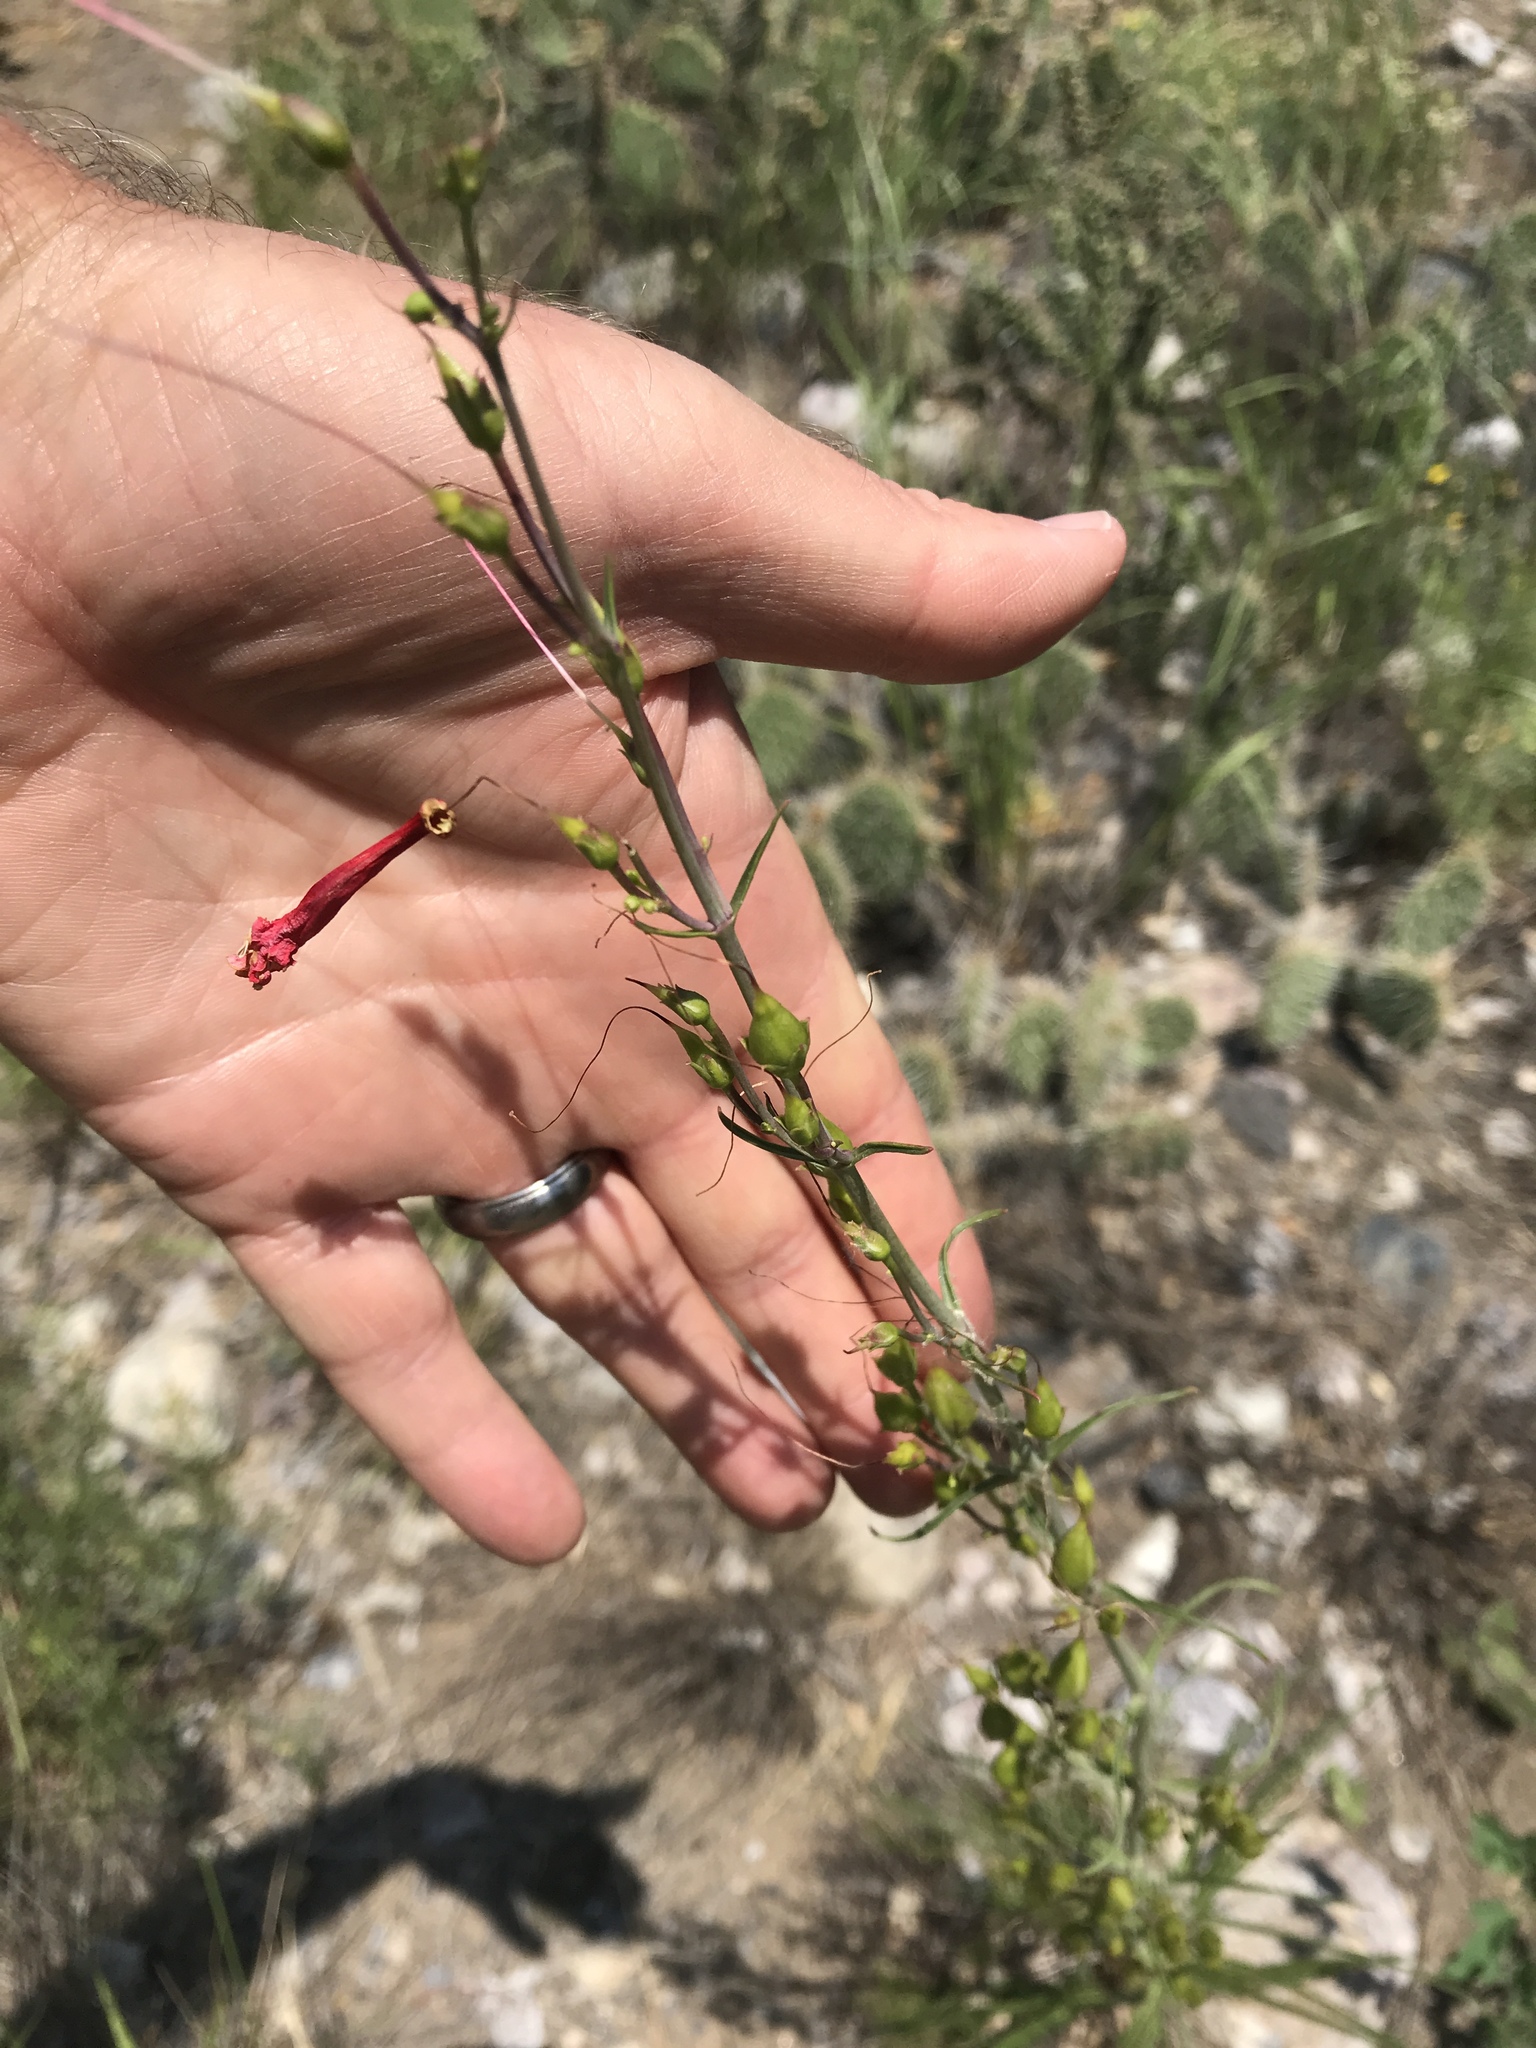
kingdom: Plantae
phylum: Tracheophyta
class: Magnoliopsida
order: Lamiales
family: Plantaginaceae
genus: Penstemon
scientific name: Penstemon barbatus
